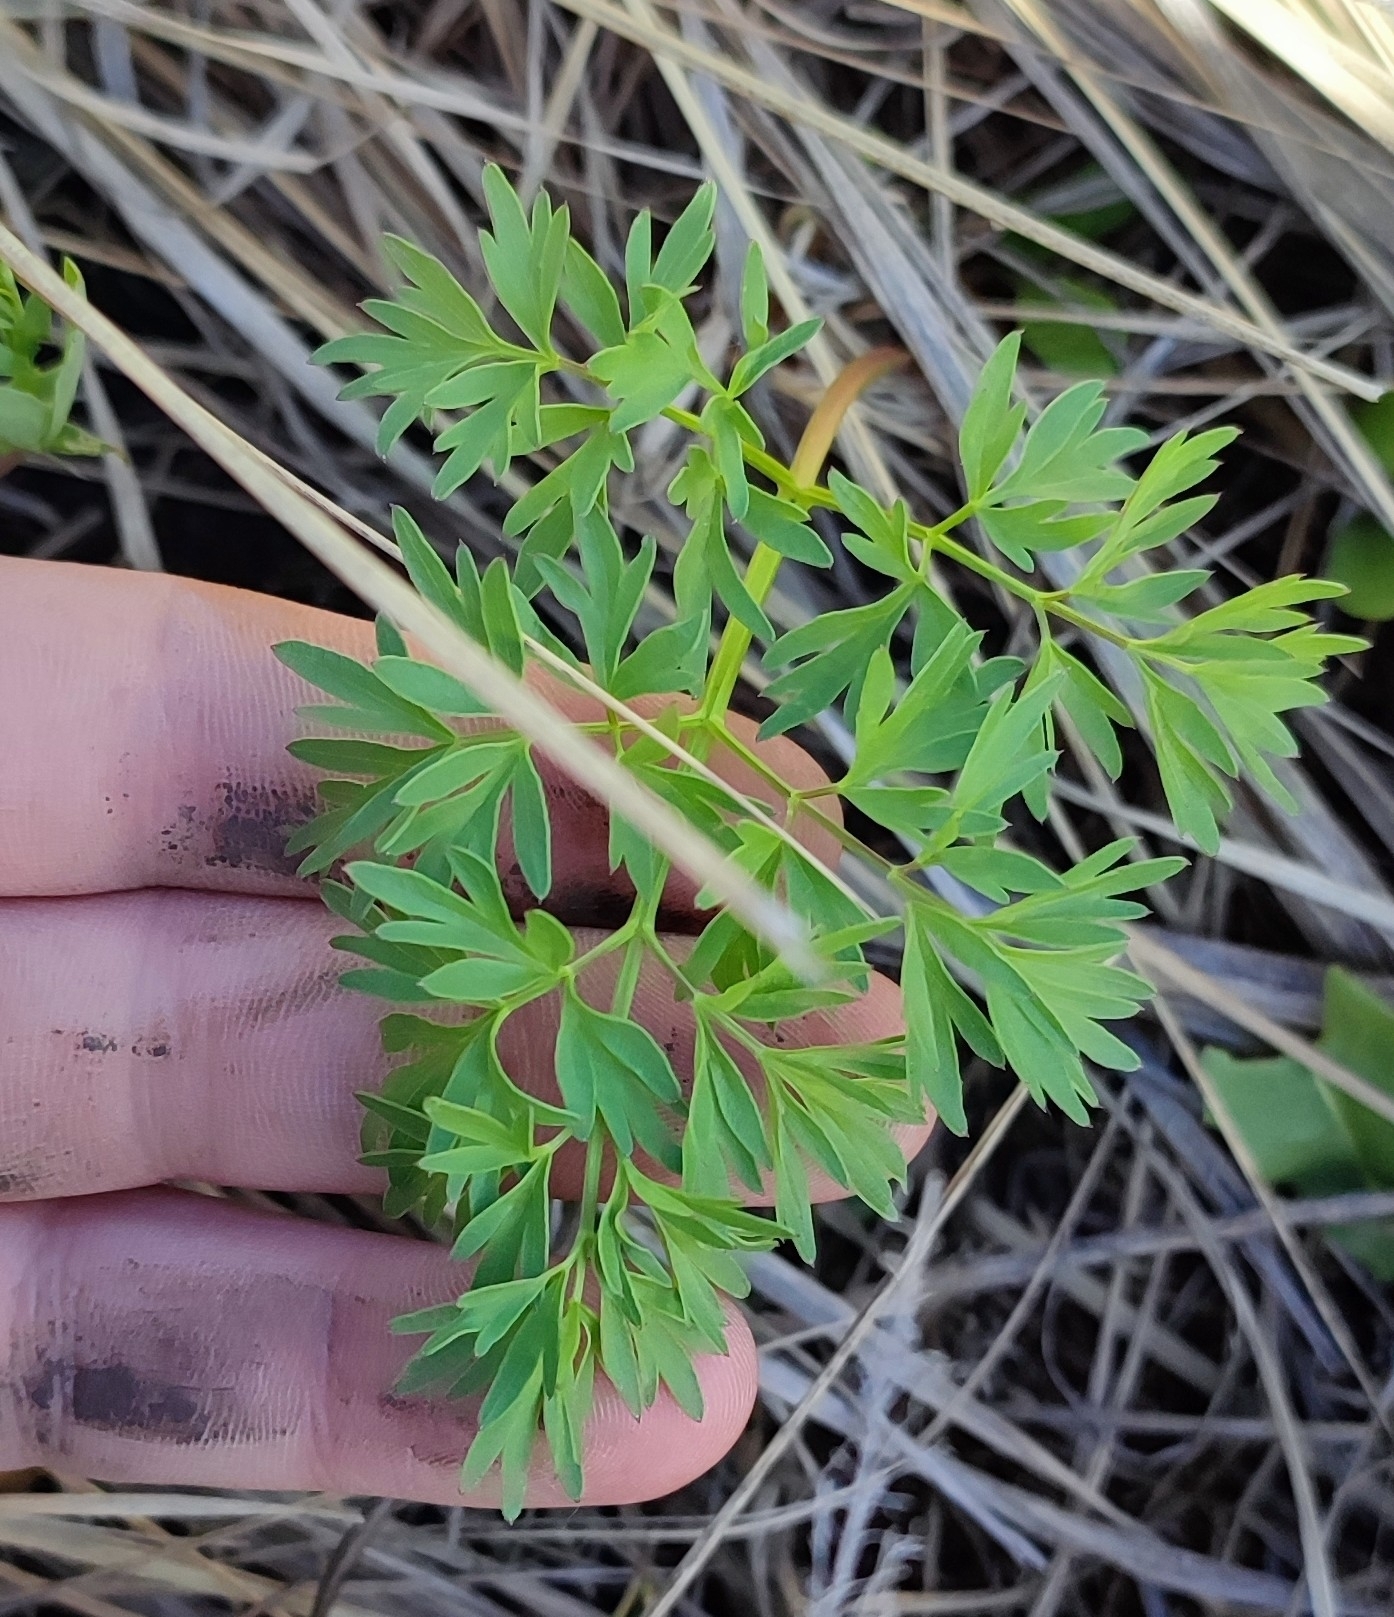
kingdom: Plantae
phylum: Tracheophyta
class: Magnoliopsida
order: Apiales
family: Apiaceae
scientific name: Apiaceae
